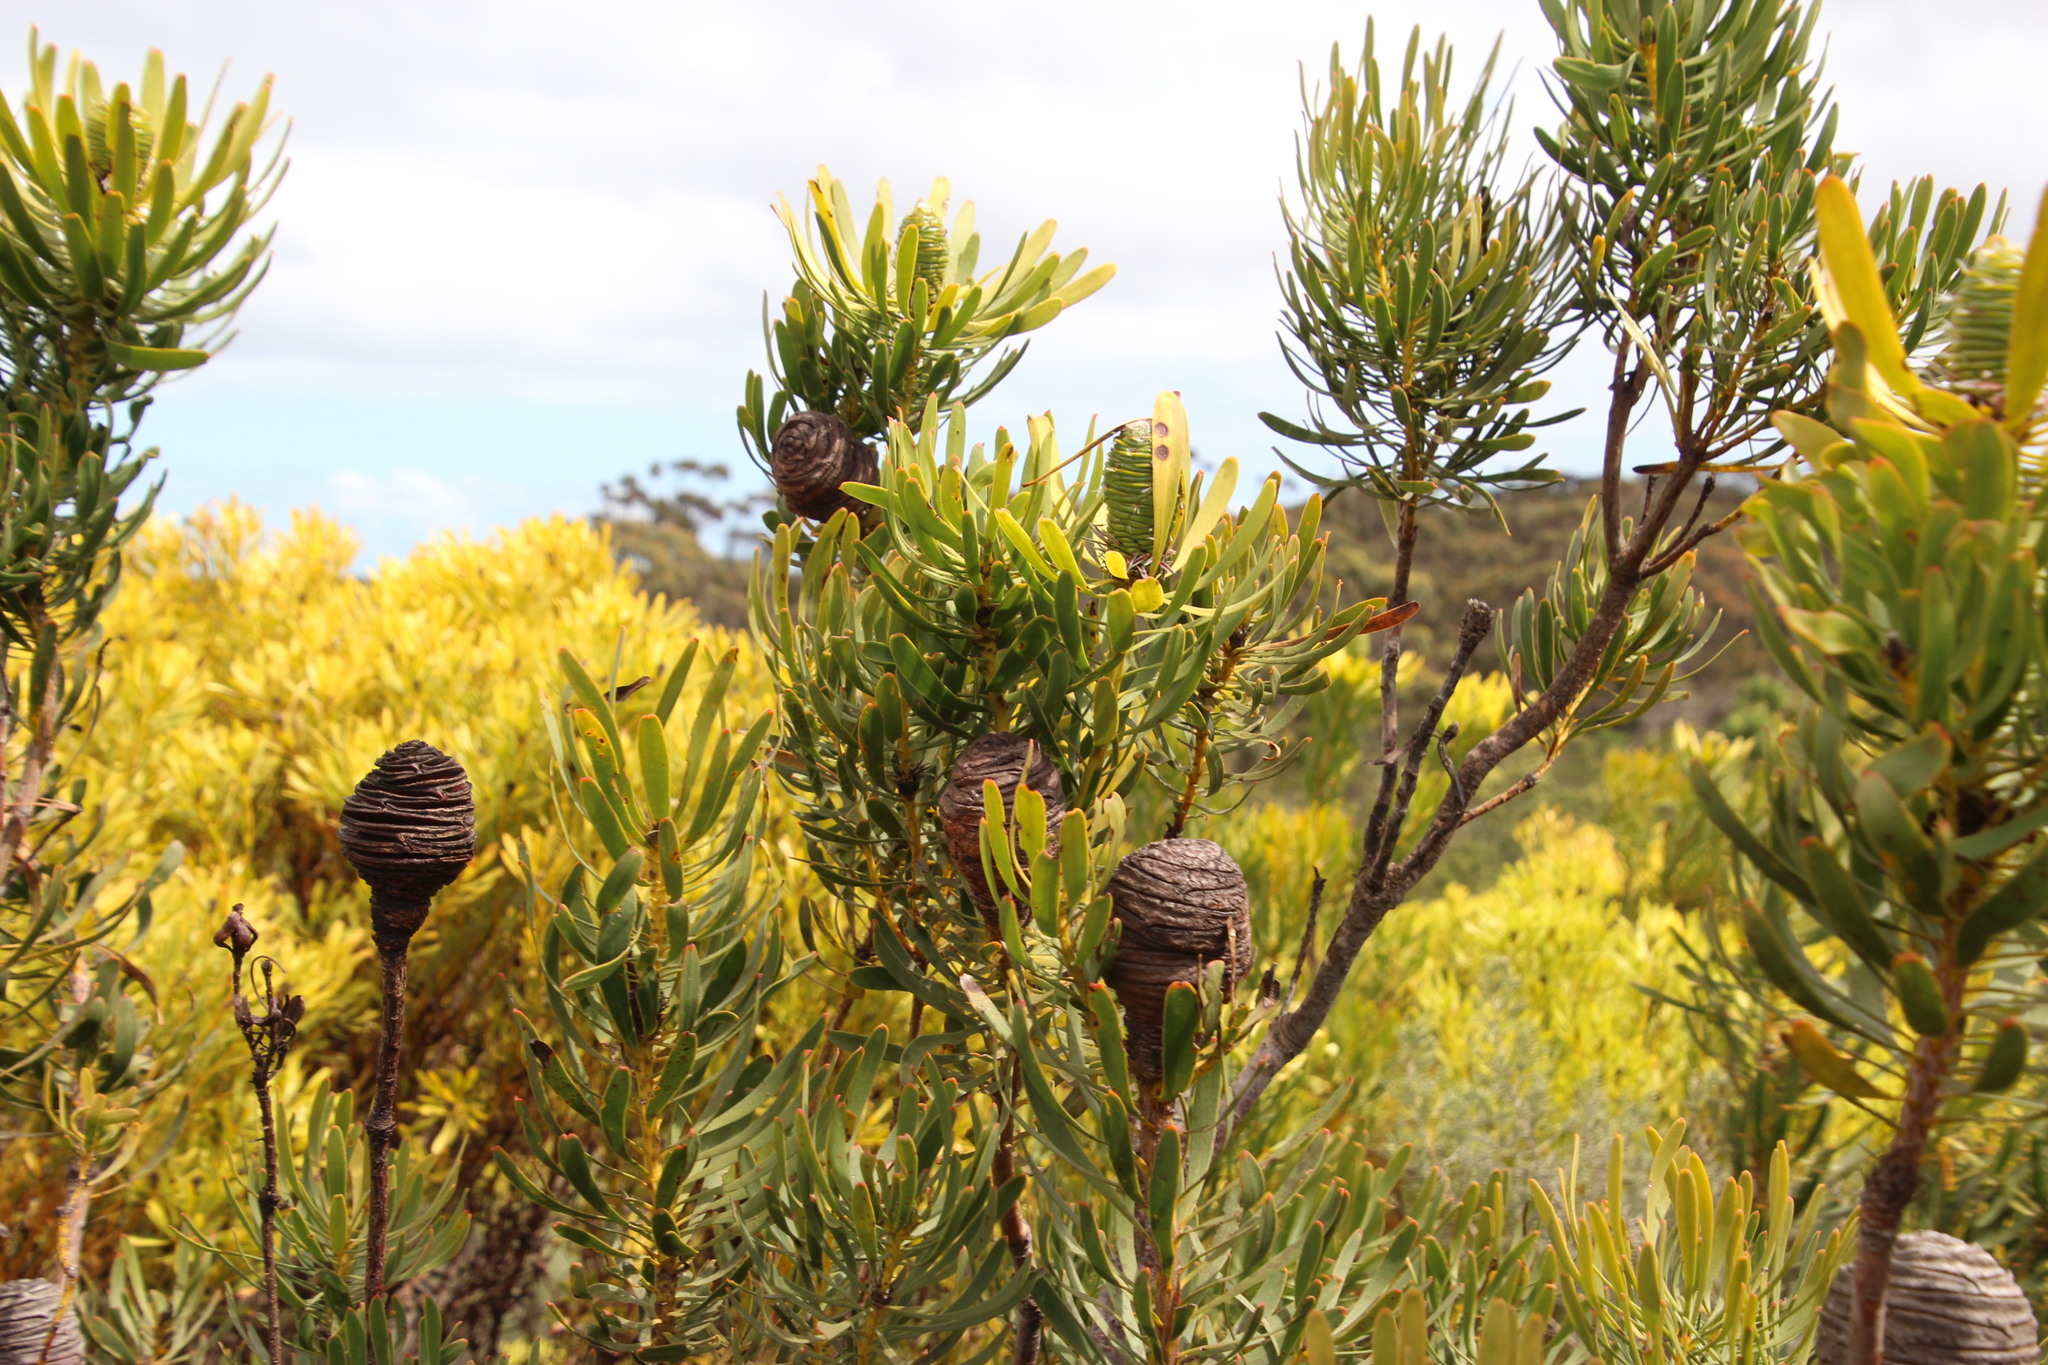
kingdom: Plantae
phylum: Tracheophyta
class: Magnoliopsida
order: Proteales
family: Proteaceae
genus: Leucadendron
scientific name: Leucadendron platyspermum
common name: Plate-seed conebush
